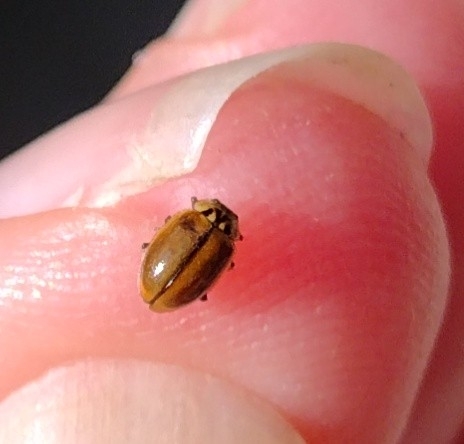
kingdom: Animalia
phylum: Arthropoda
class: Insecta
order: Coleoptera
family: Coccinellidae
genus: Aphidecta
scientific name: Aphidecta obliterata
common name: Larch ladybird
